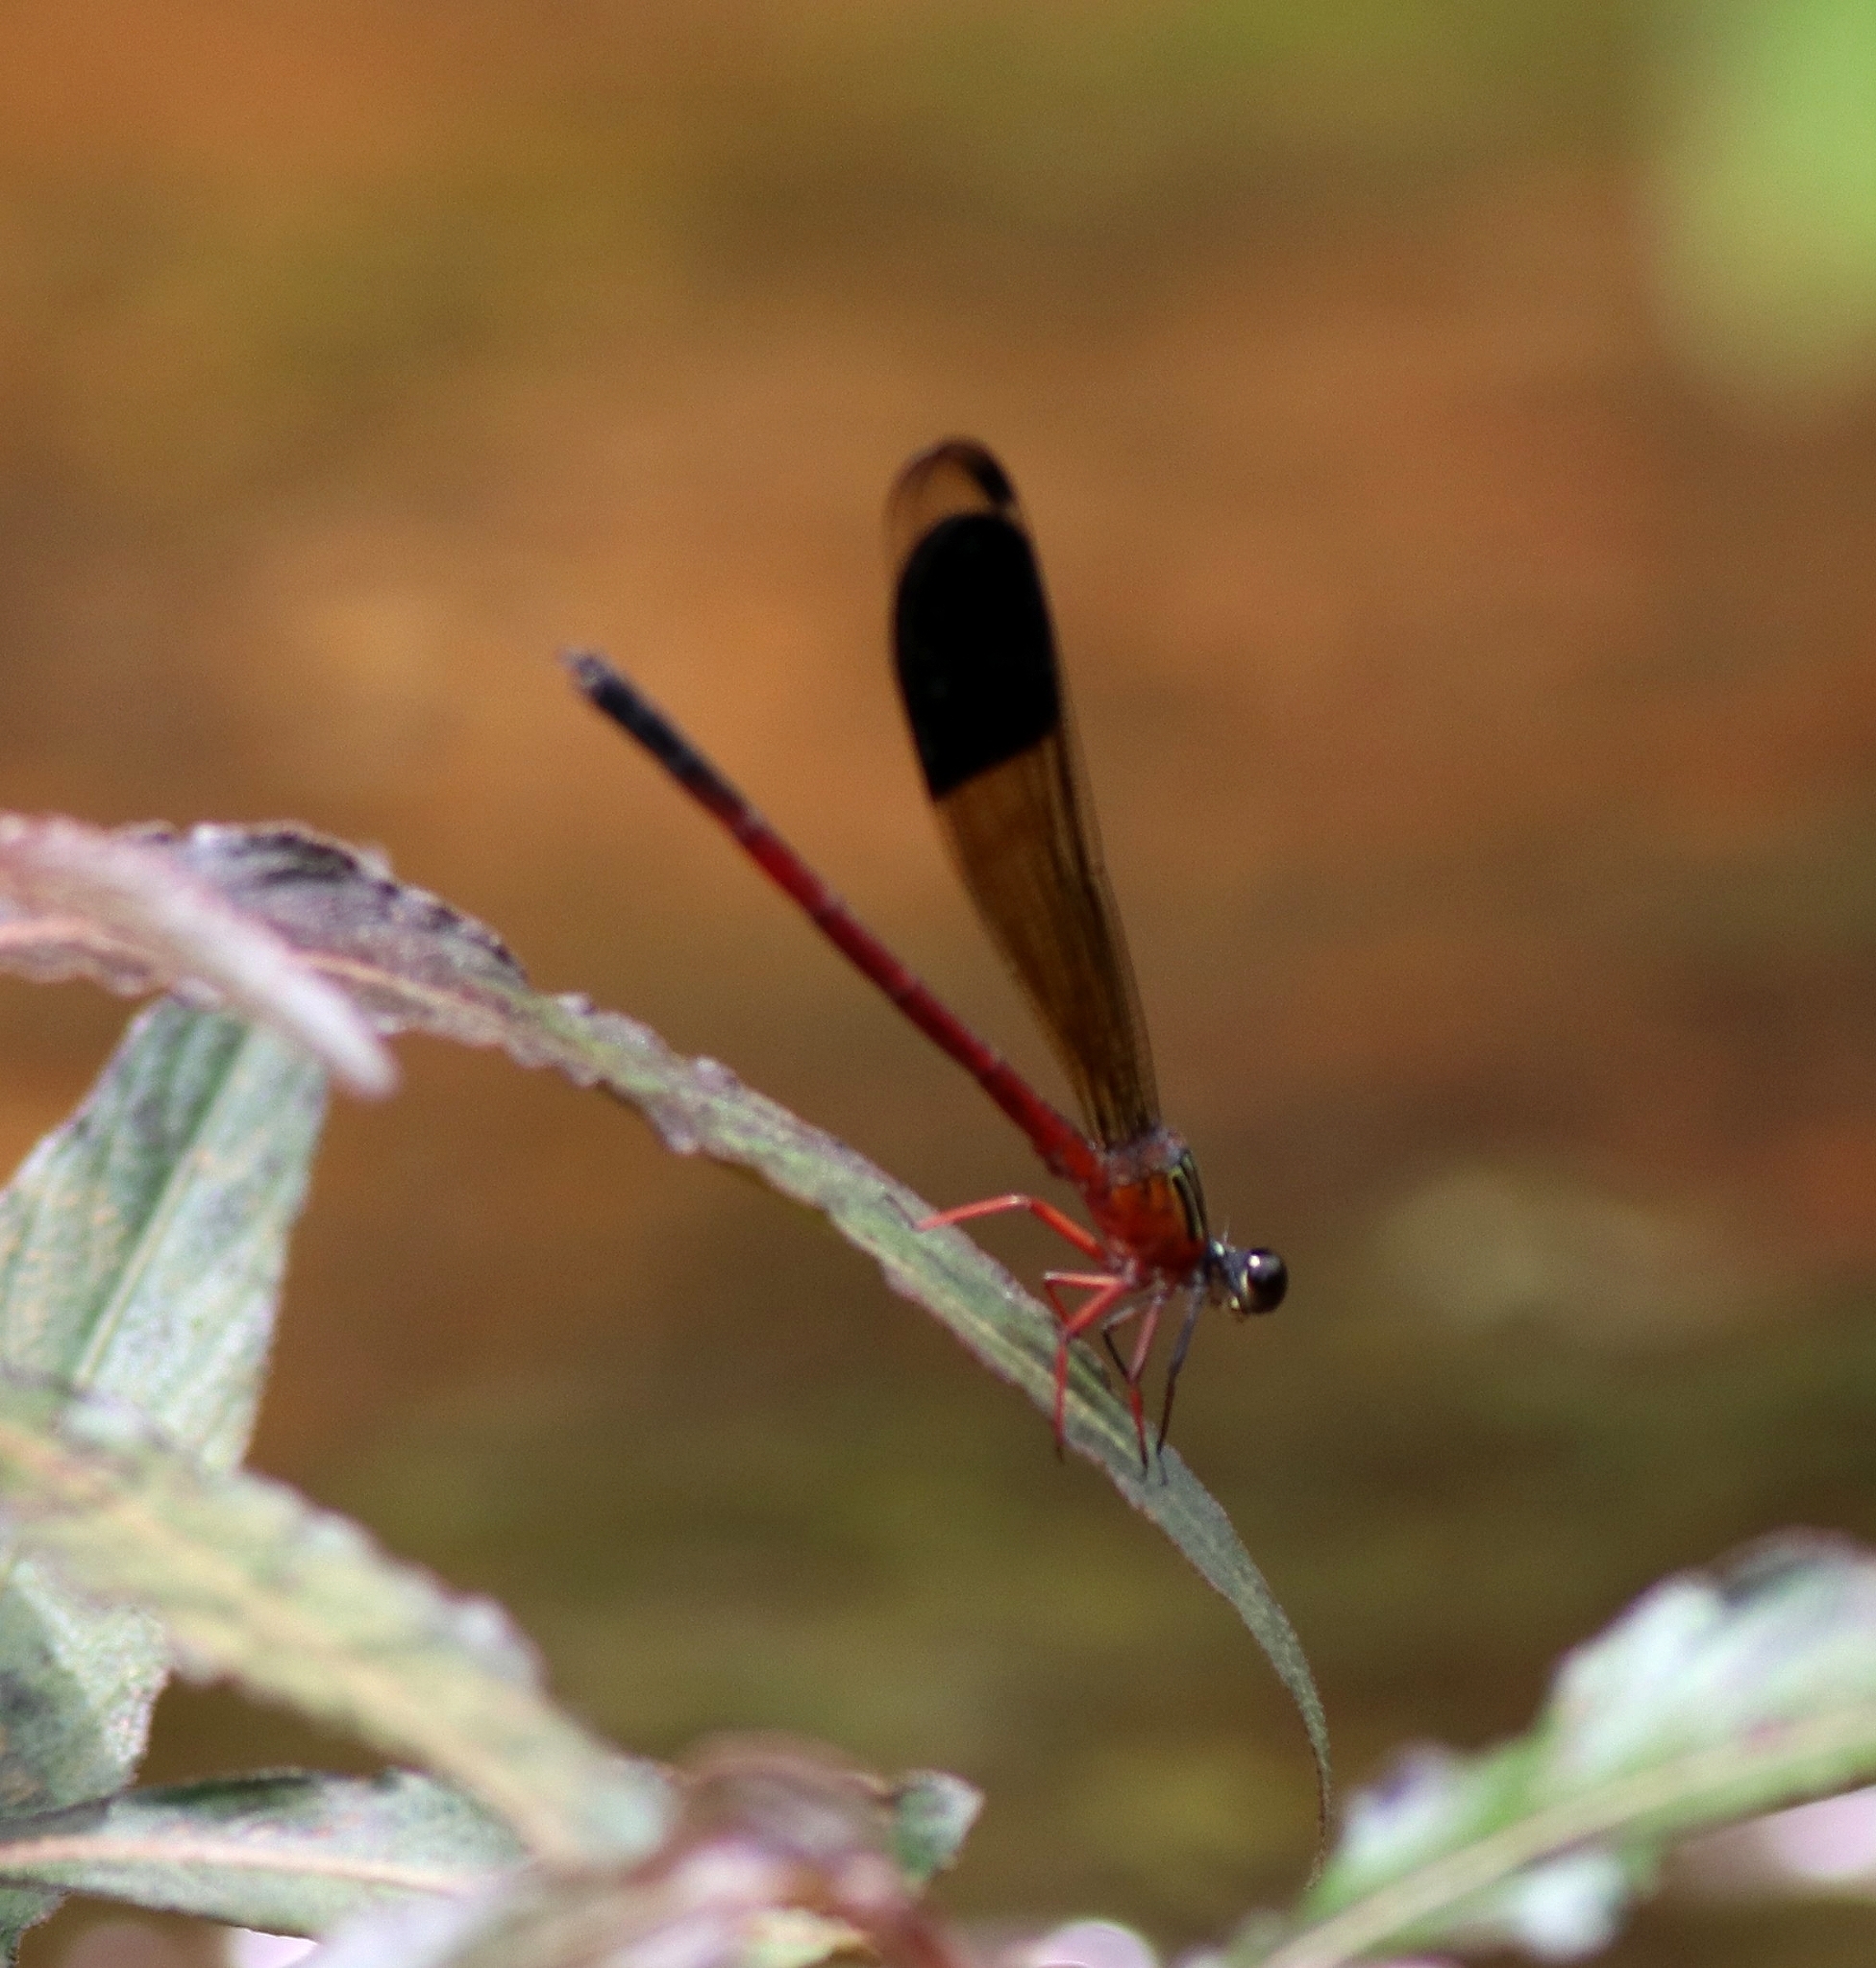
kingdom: Animalia
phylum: Arthropoda
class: Insecta
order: Odonata
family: Euphaeidae
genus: Euphaea
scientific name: Euphaea fraseri
